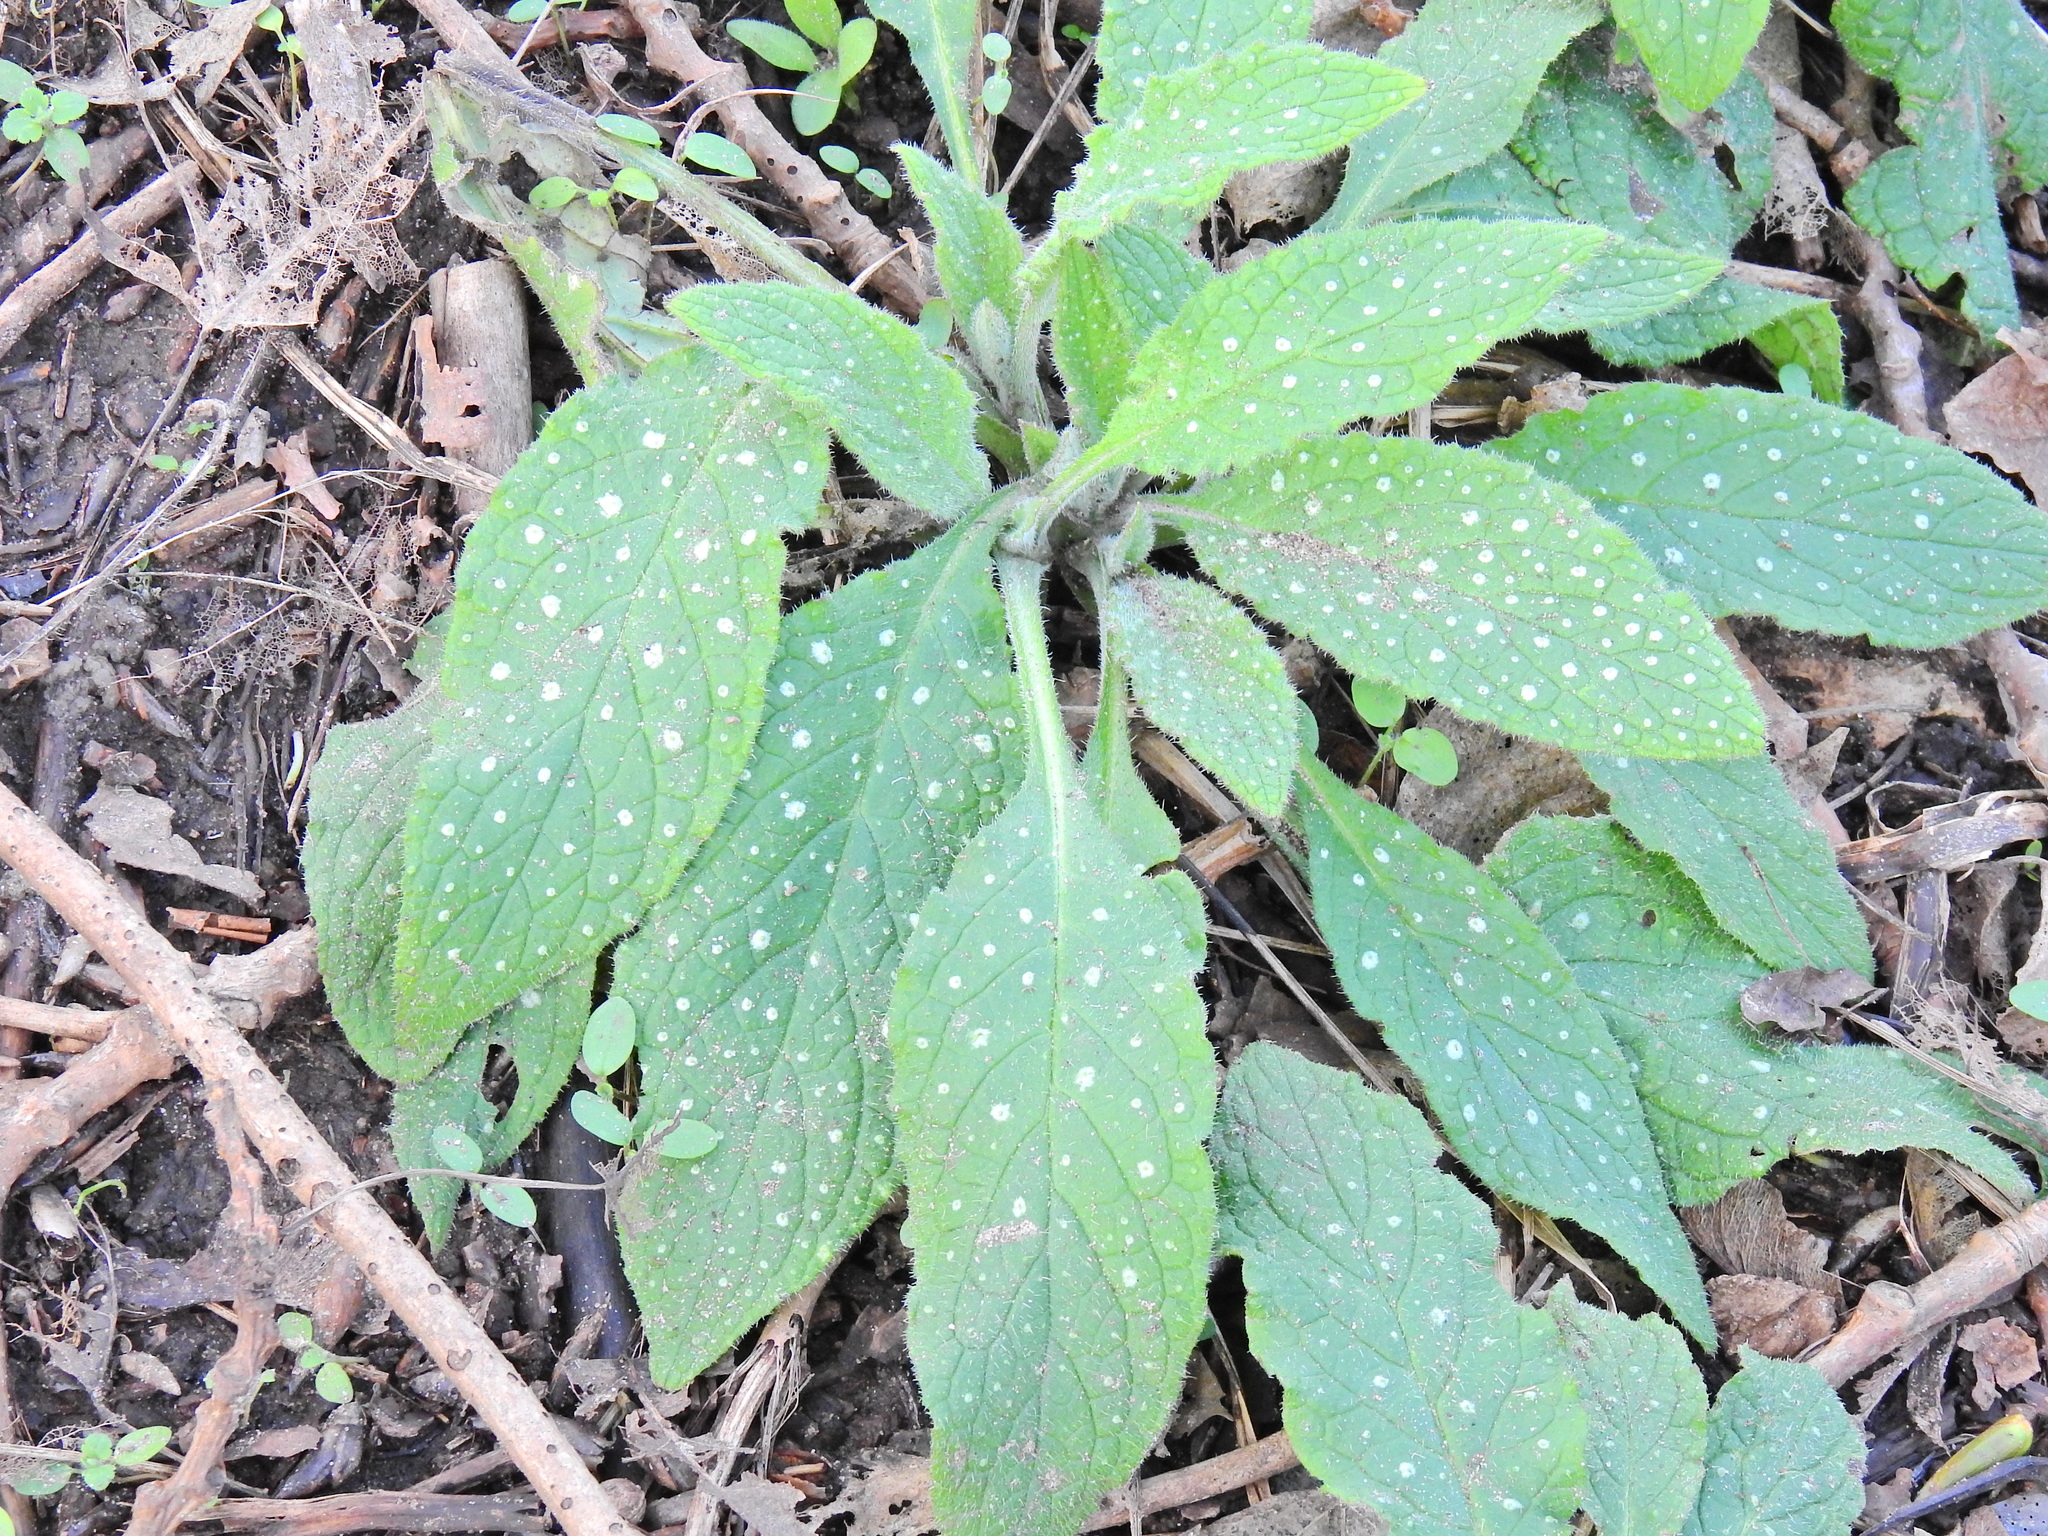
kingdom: Plantae
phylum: Tracheophyta
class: Magnoliopsida
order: Boraginales
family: Boraginaceae
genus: Pentaglottis
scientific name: Pentaglottis sempervirens
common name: Green alkanet
